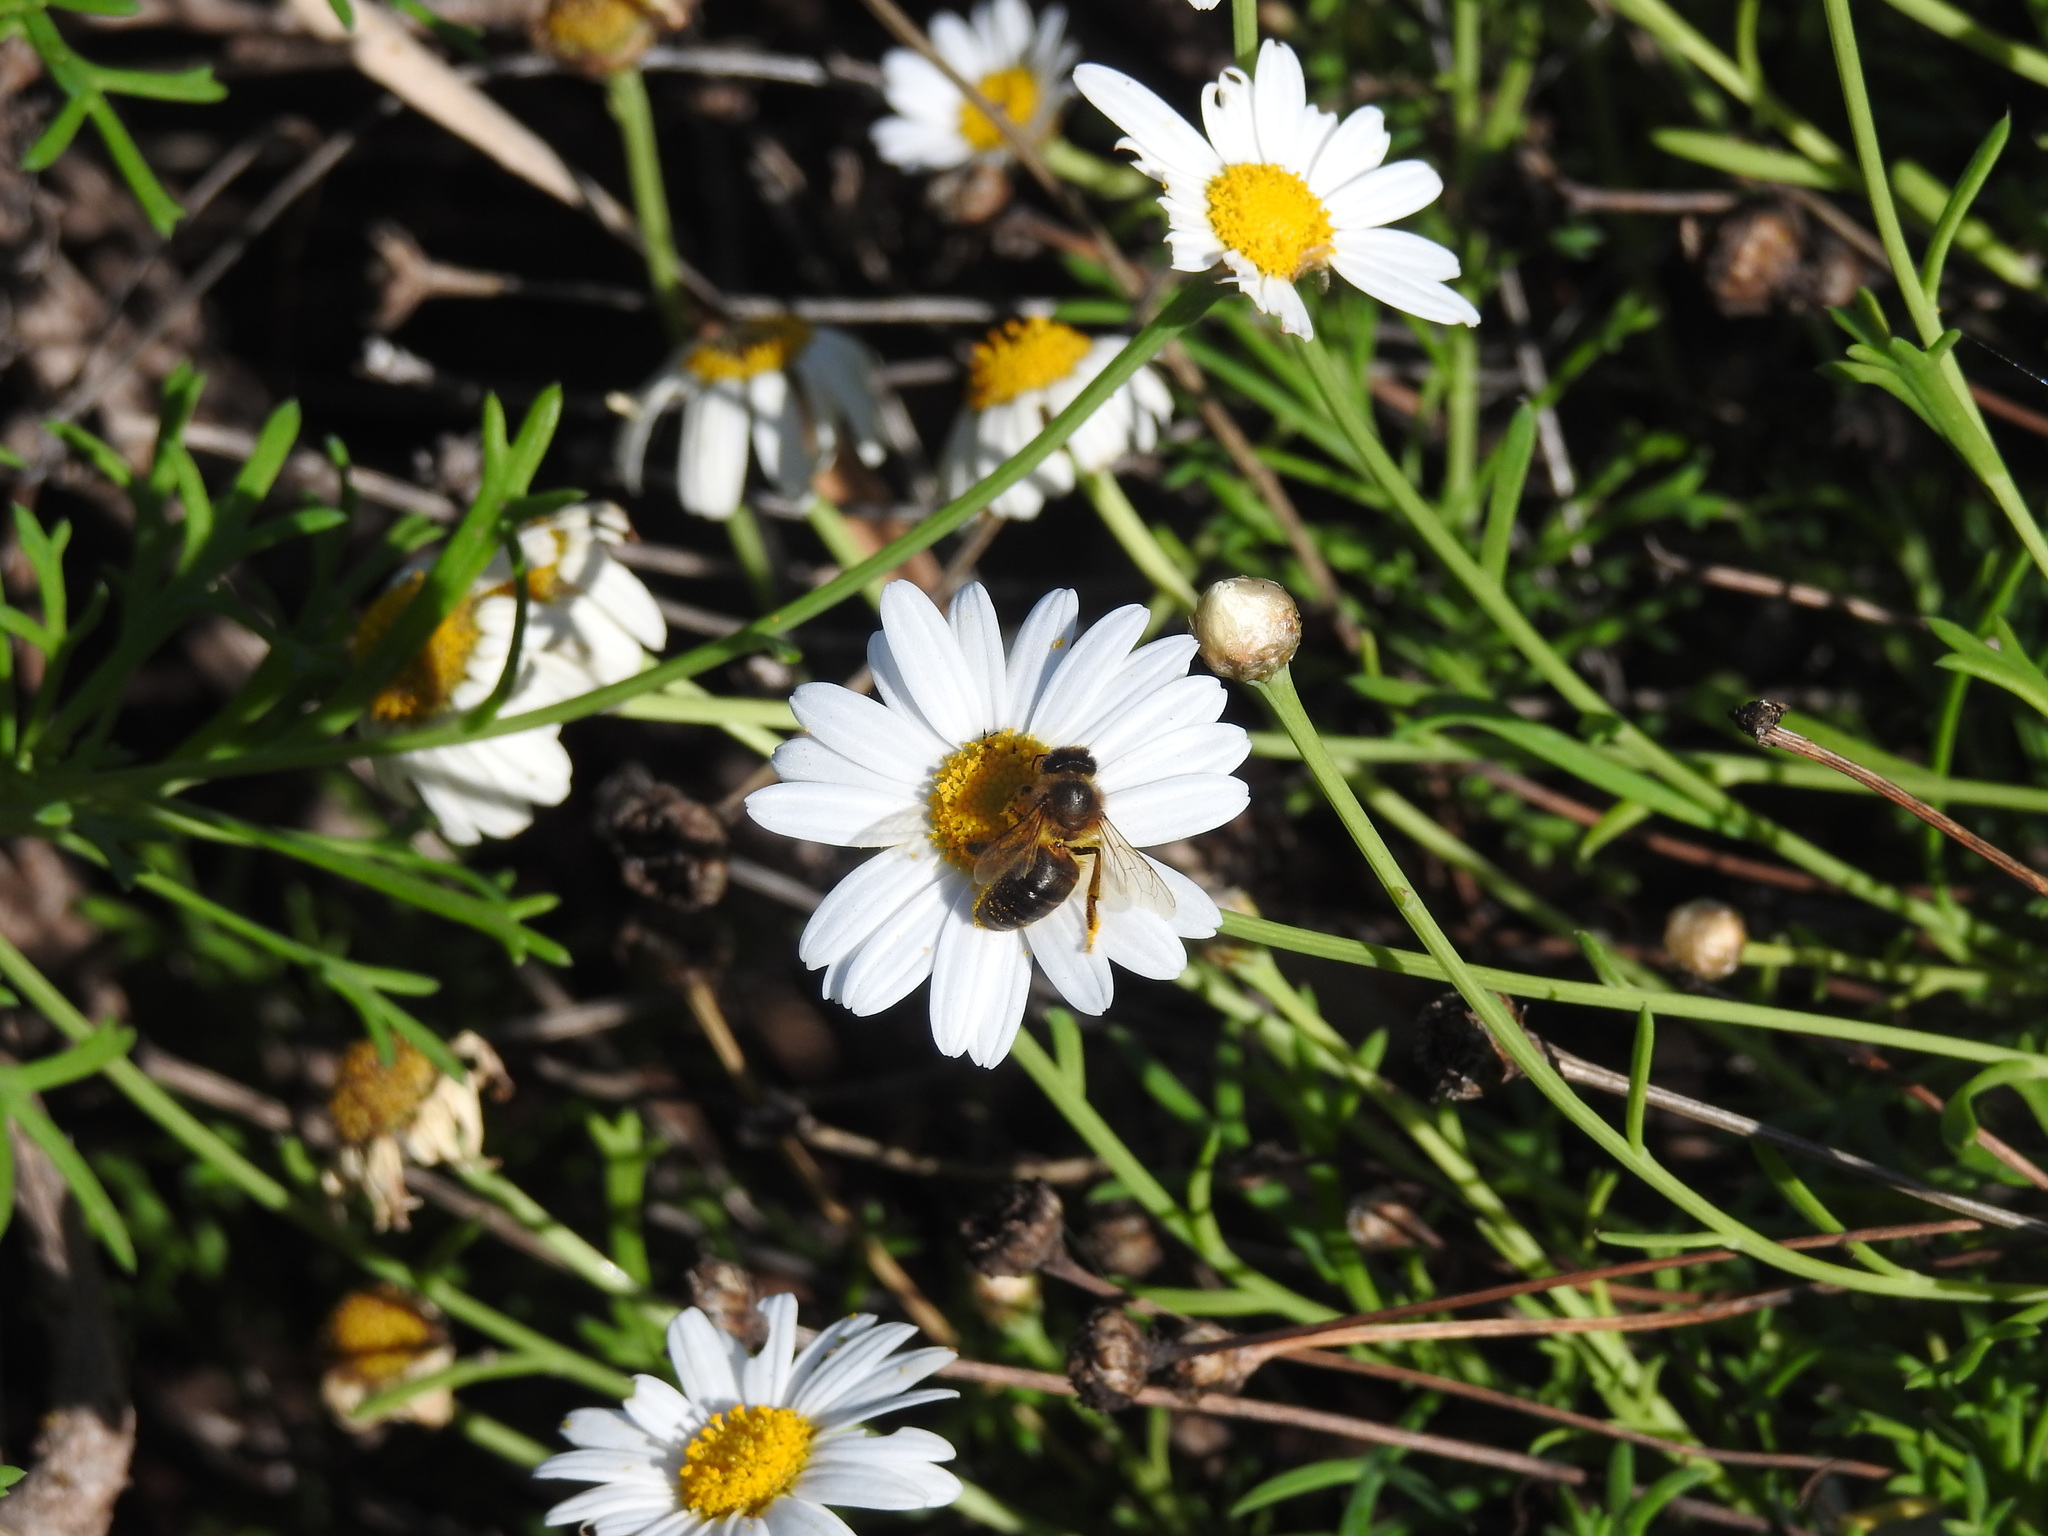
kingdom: Animalia
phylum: Arthropoda
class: Insecta
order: Hymenoptera
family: Apidae
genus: Apis
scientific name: Apis mellifera
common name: Honey bee
